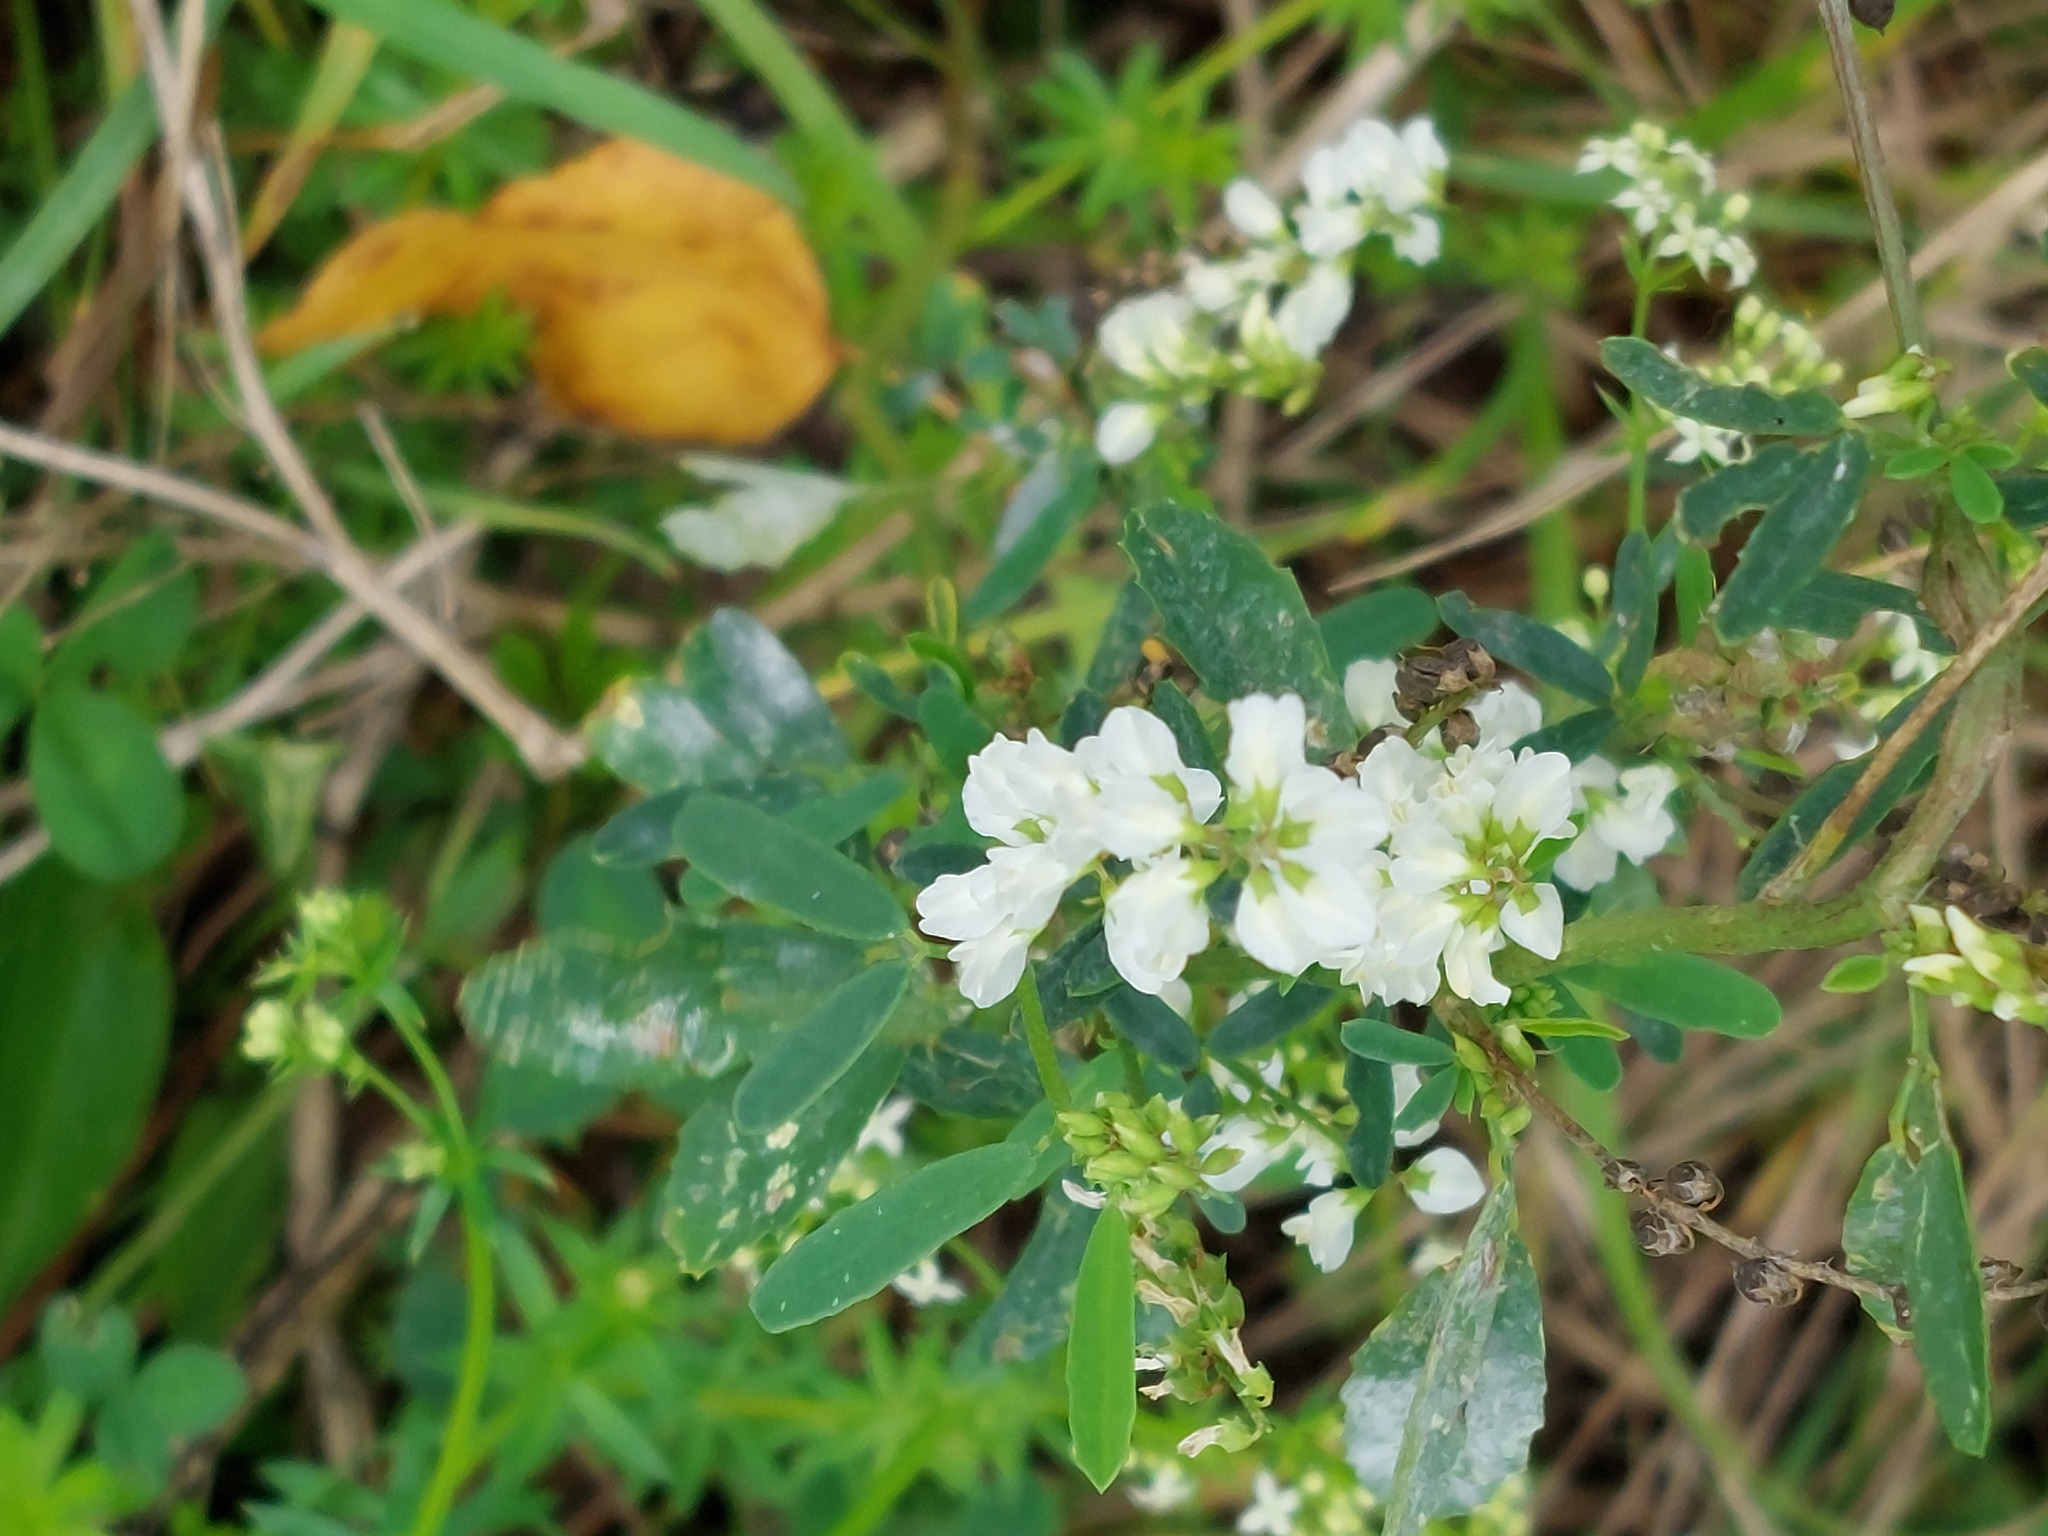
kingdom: Plantae
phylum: Tracheophyta
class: Magnoliopsida
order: Fabales
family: Fabaceae
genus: Melilotus
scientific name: Melilotus albus
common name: White melilot
